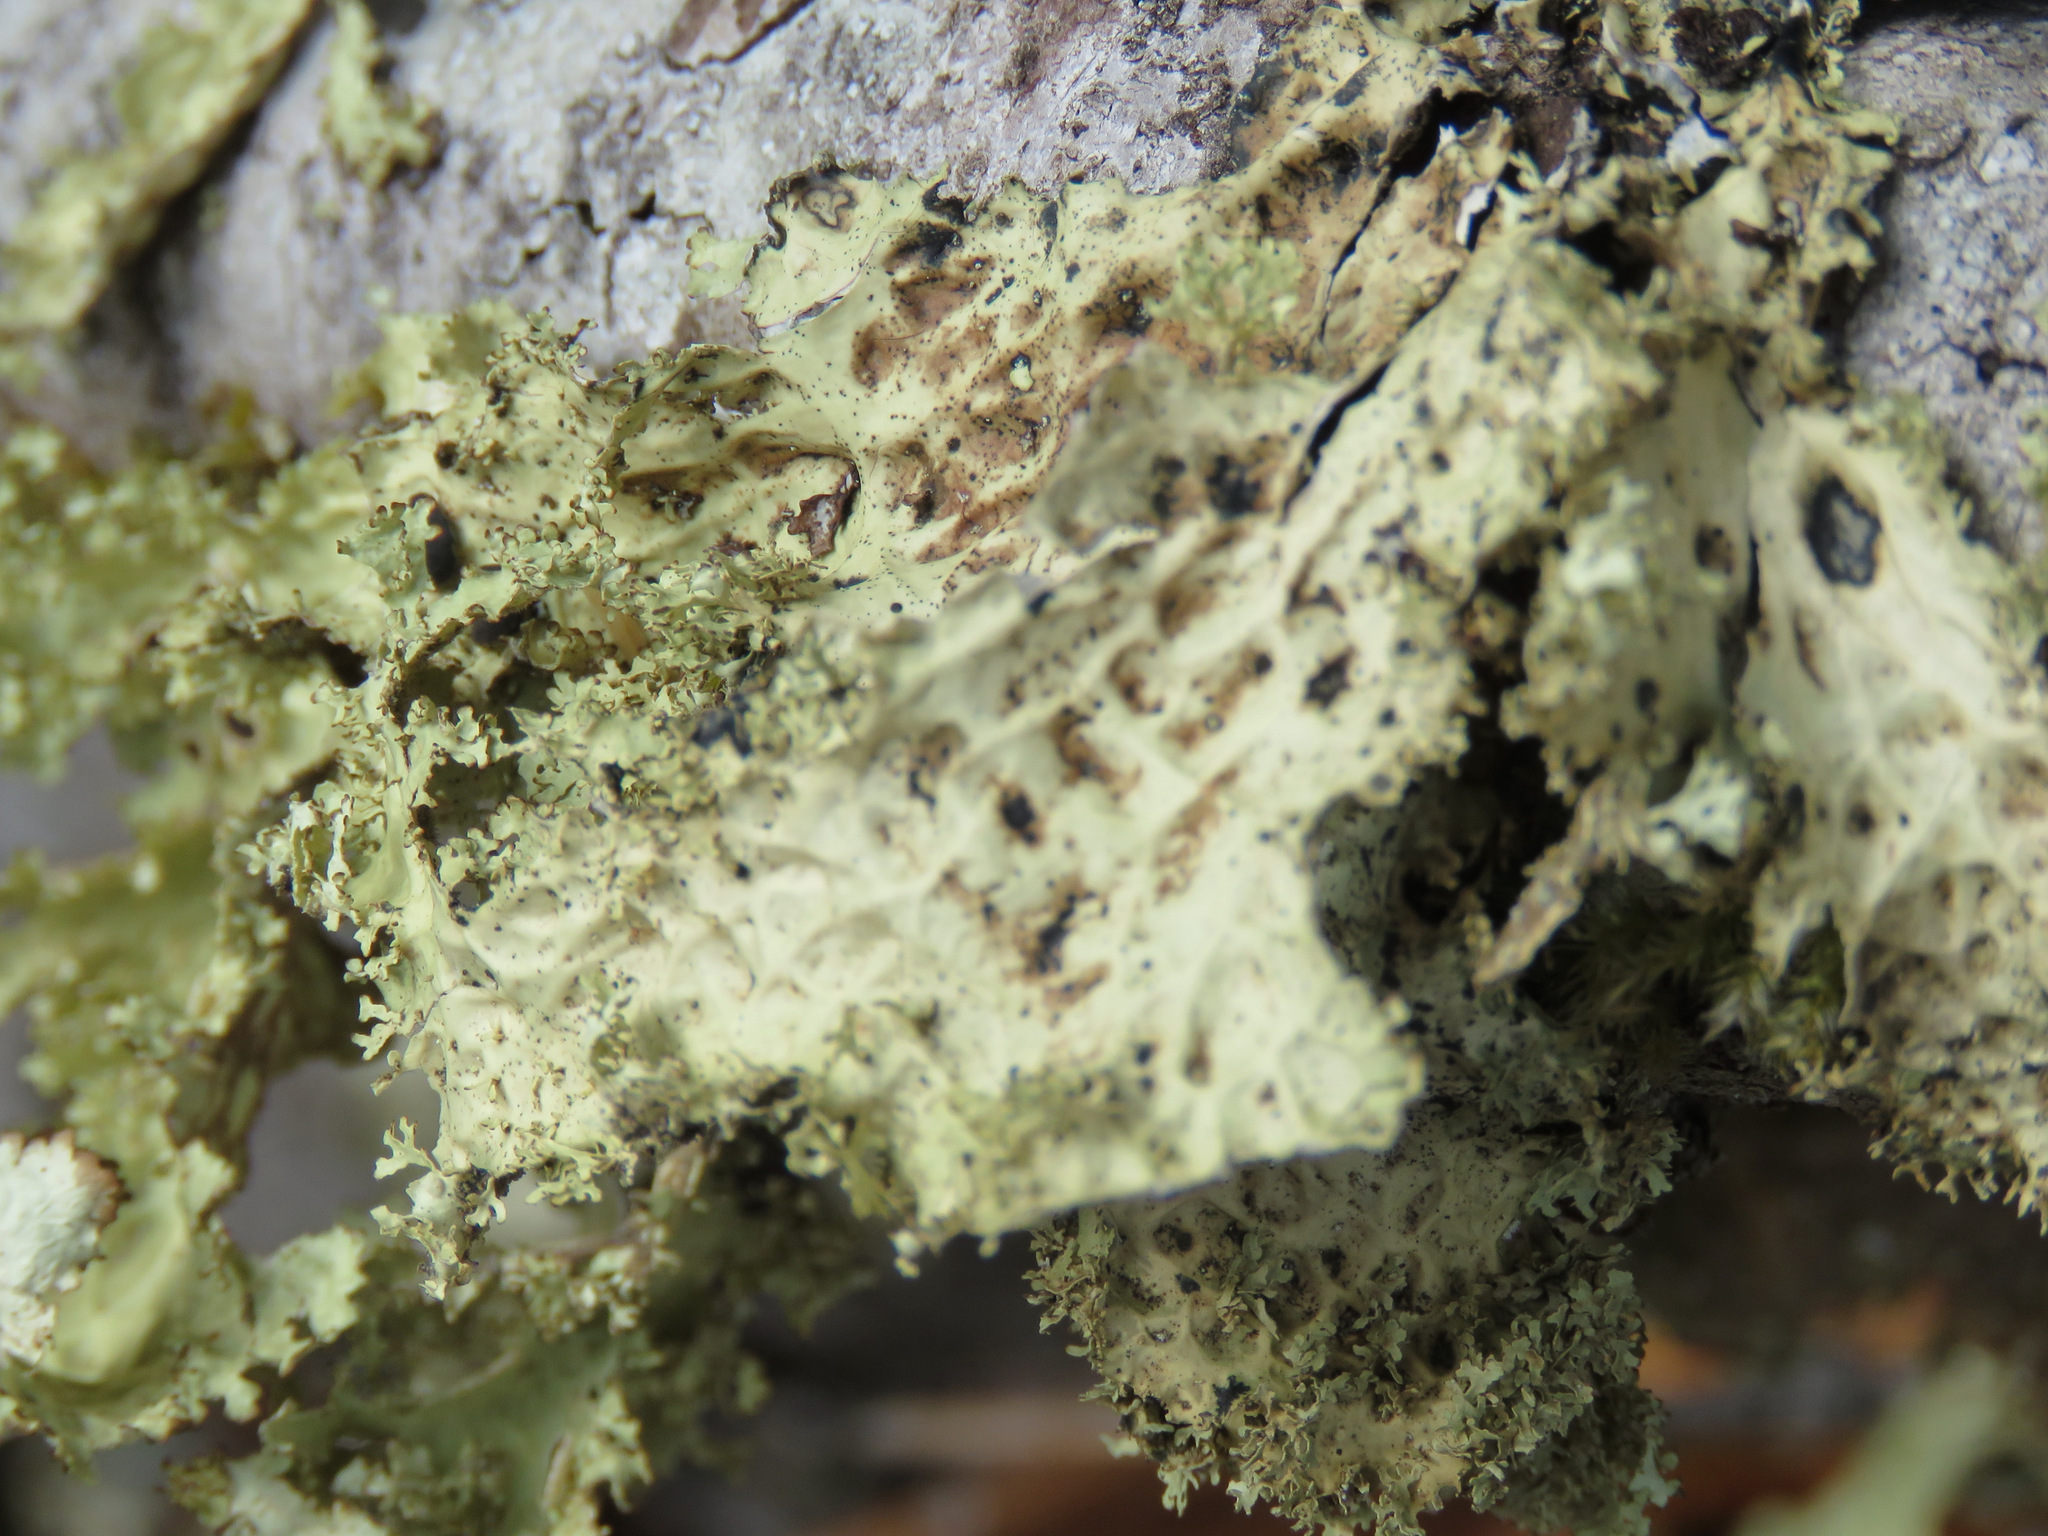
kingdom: Fungi
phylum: Ascomycota
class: Lecanoromycetes
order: Peltigerales
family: Lobariaceae
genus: Lobaria
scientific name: Lobaria oregana
